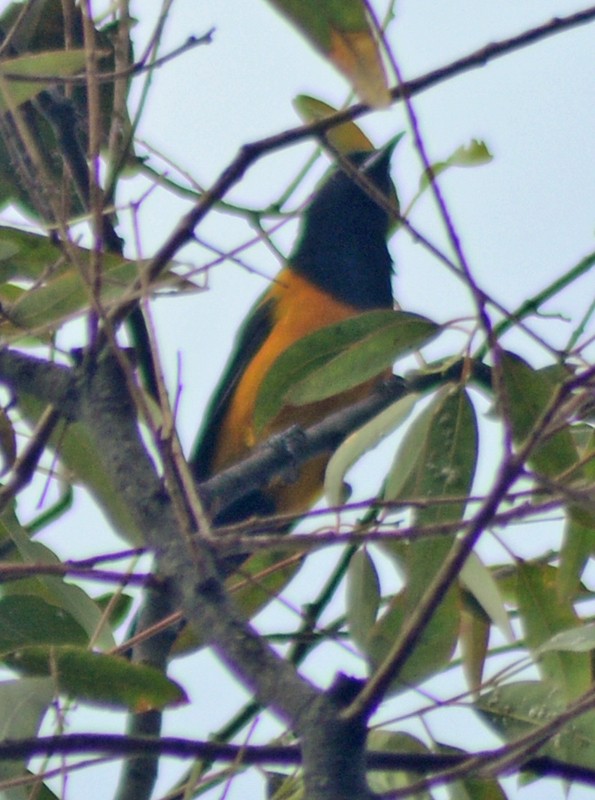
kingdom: Animalia
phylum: Chordata
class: Aves
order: Passeriformes
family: Icteridae
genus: Icterus
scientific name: Icterus wagleri
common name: Black-vented oriole
